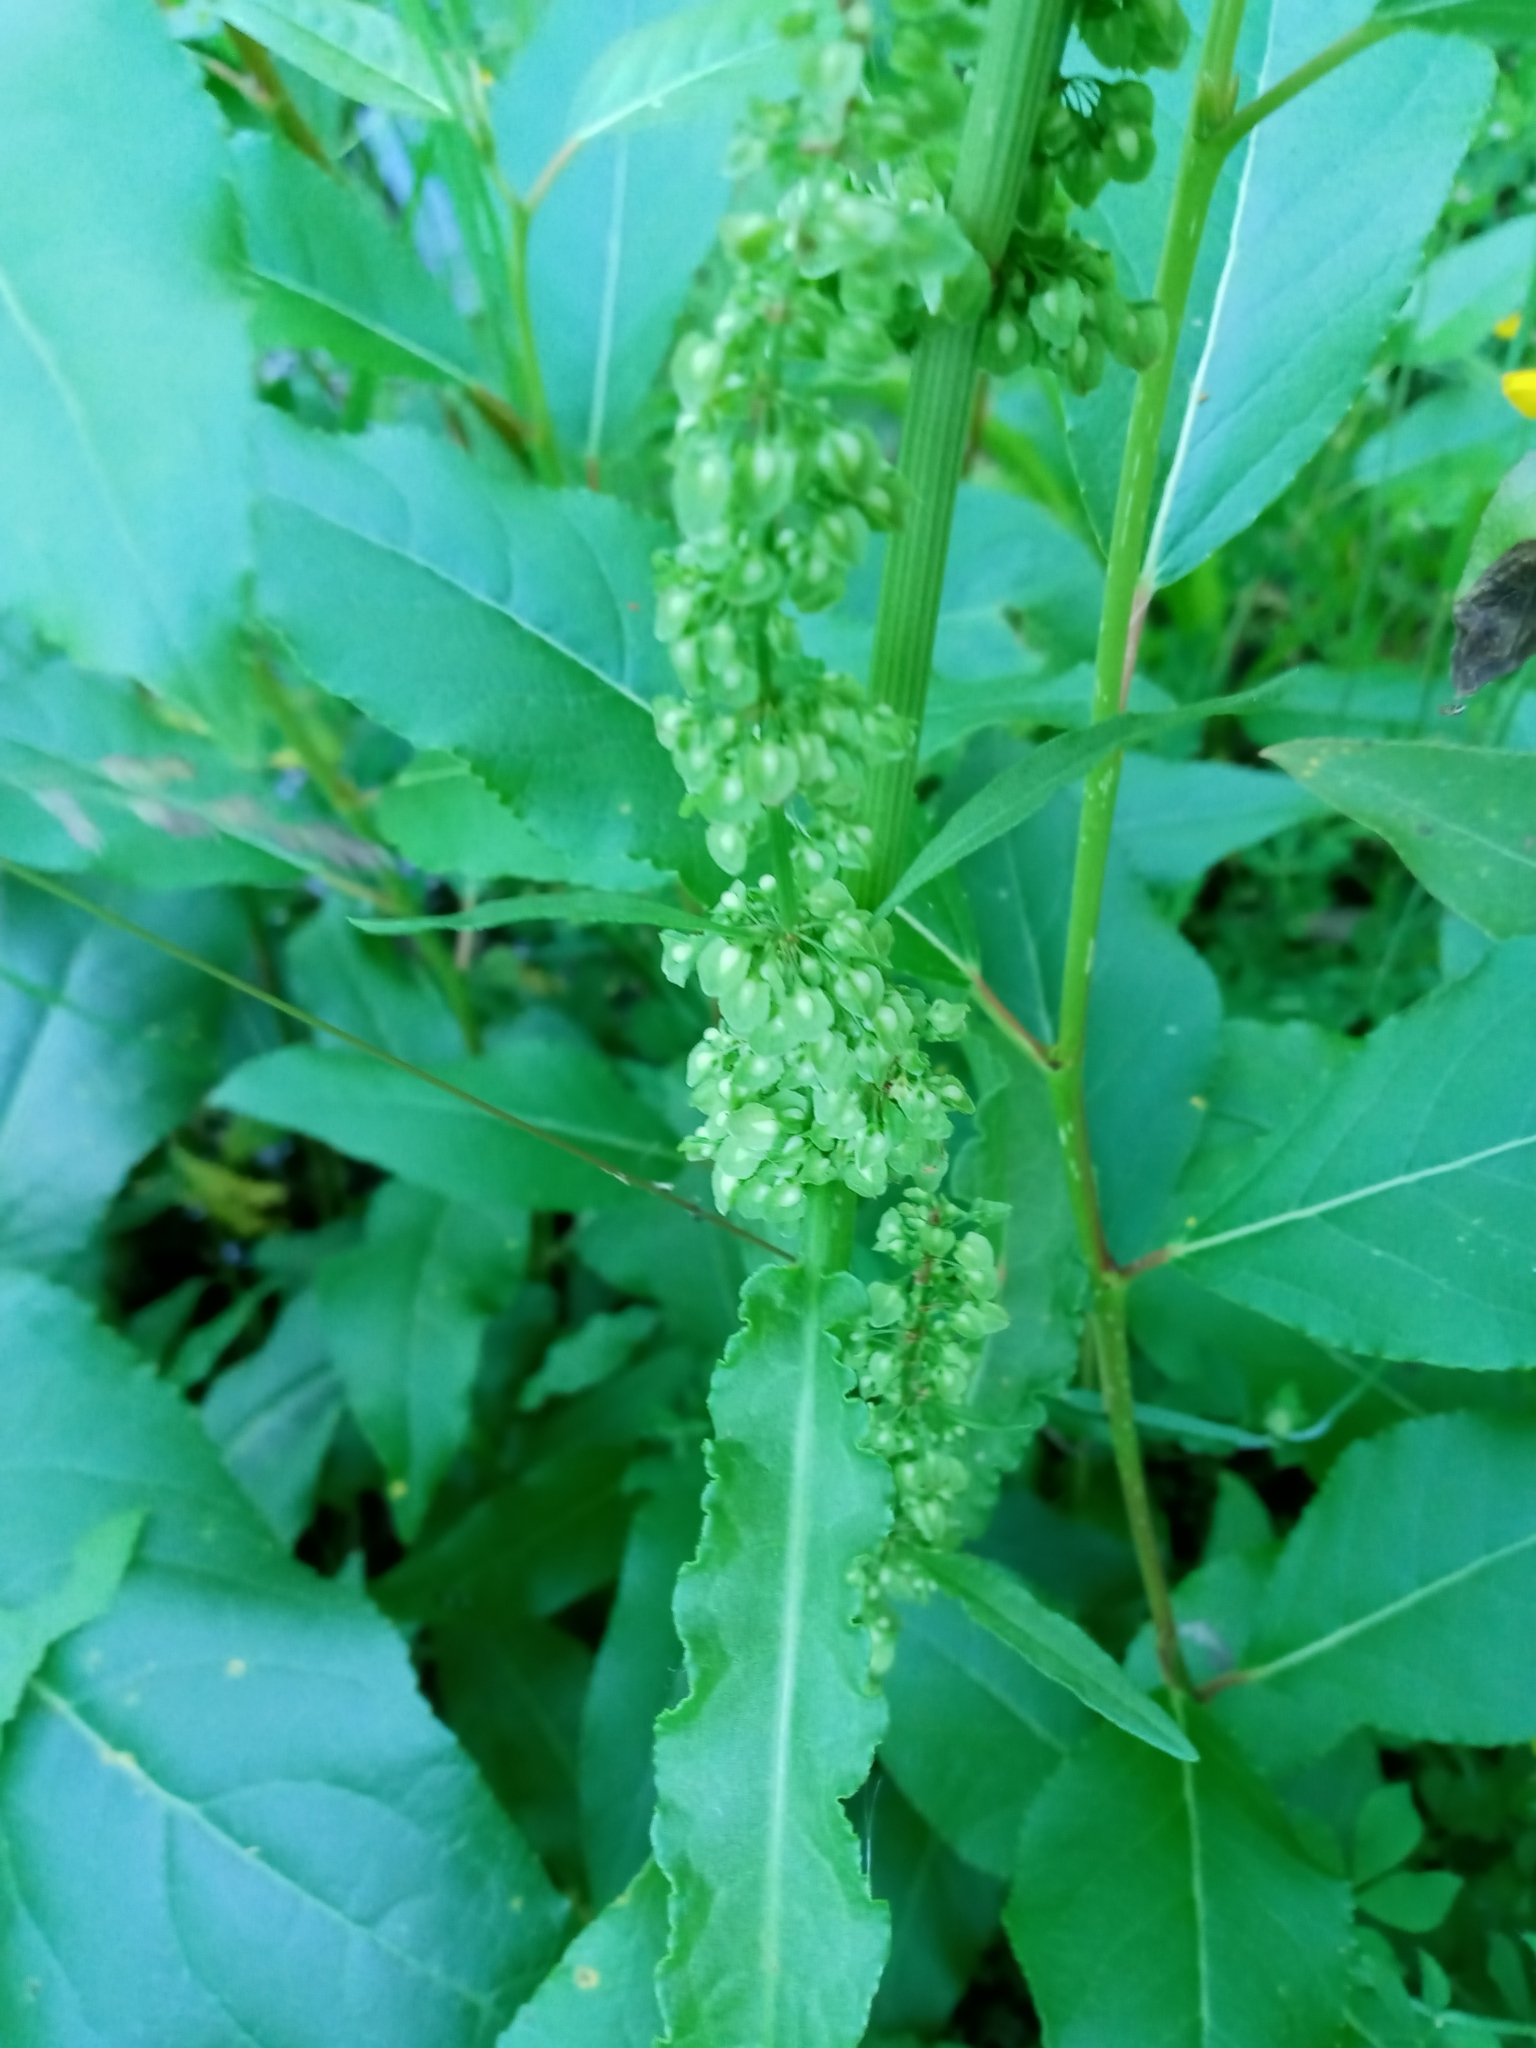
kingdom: Plantae
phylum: Tracheophyta
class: Magnoliopsida
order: Caryophyllales
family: Polygonaceae
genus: Rumex
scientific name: Rumex crispus
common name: Curled dock
